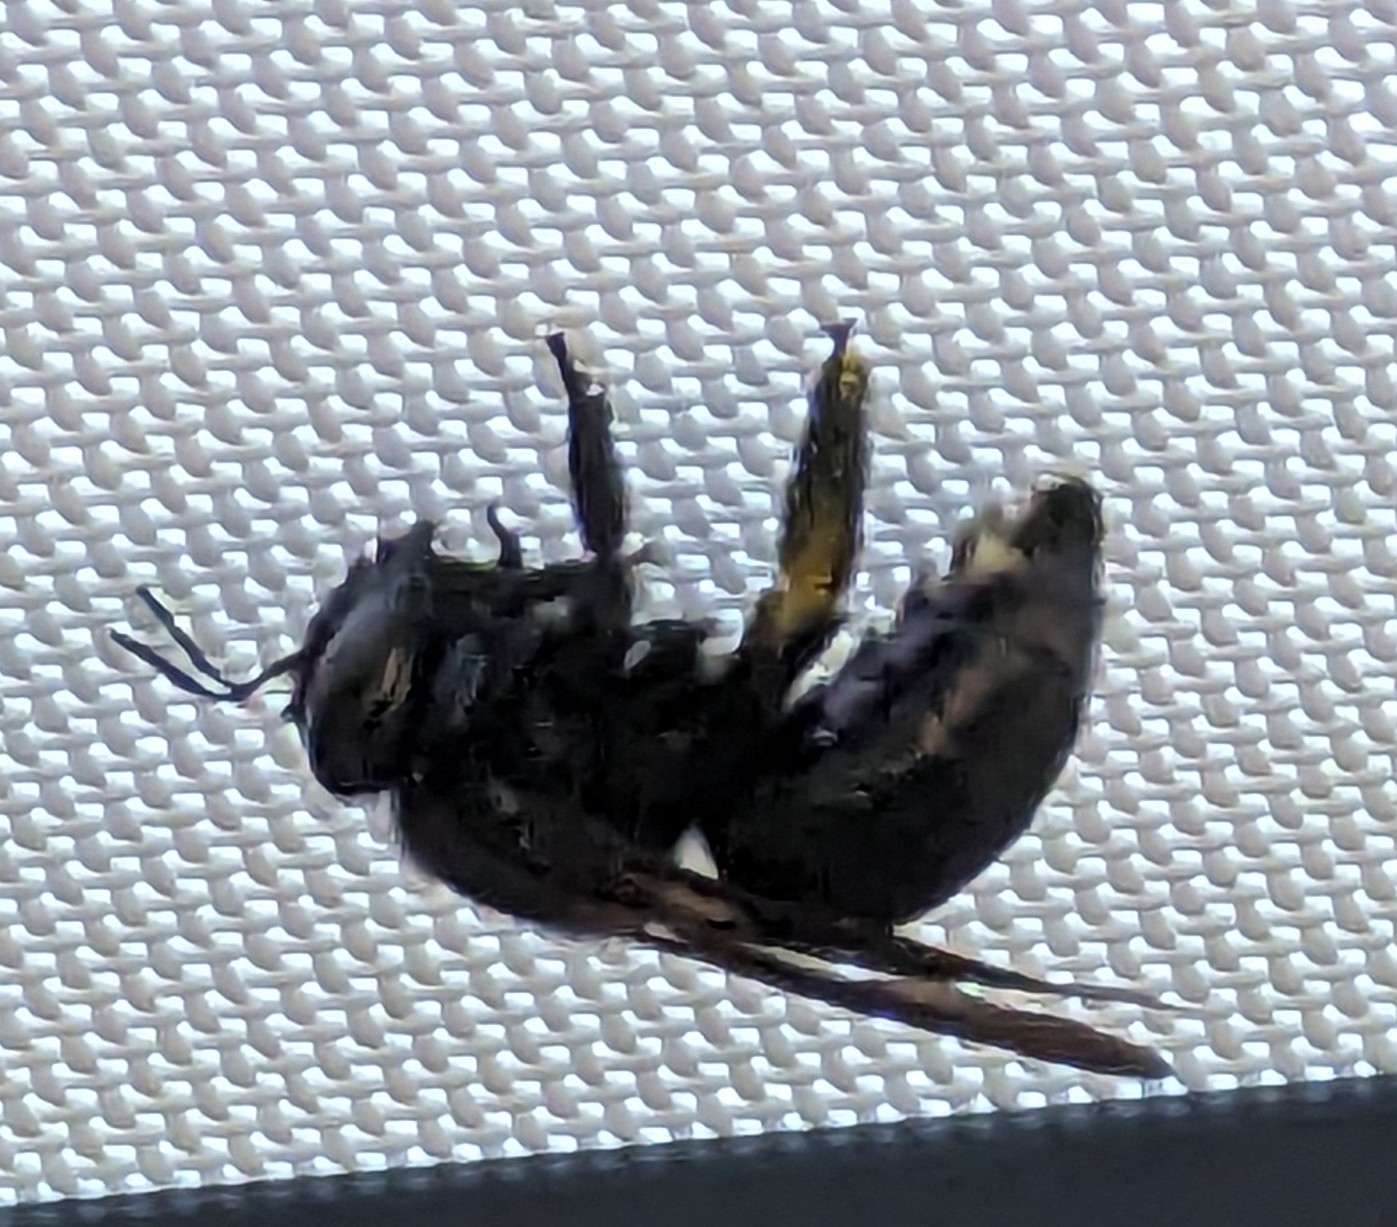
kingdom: Animalia
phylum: Arthropoda
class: Insecta
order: Hymenoptera
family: Apidae
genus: Xylocopa
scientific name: Xylocopa virginica
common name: Carpenter bee
